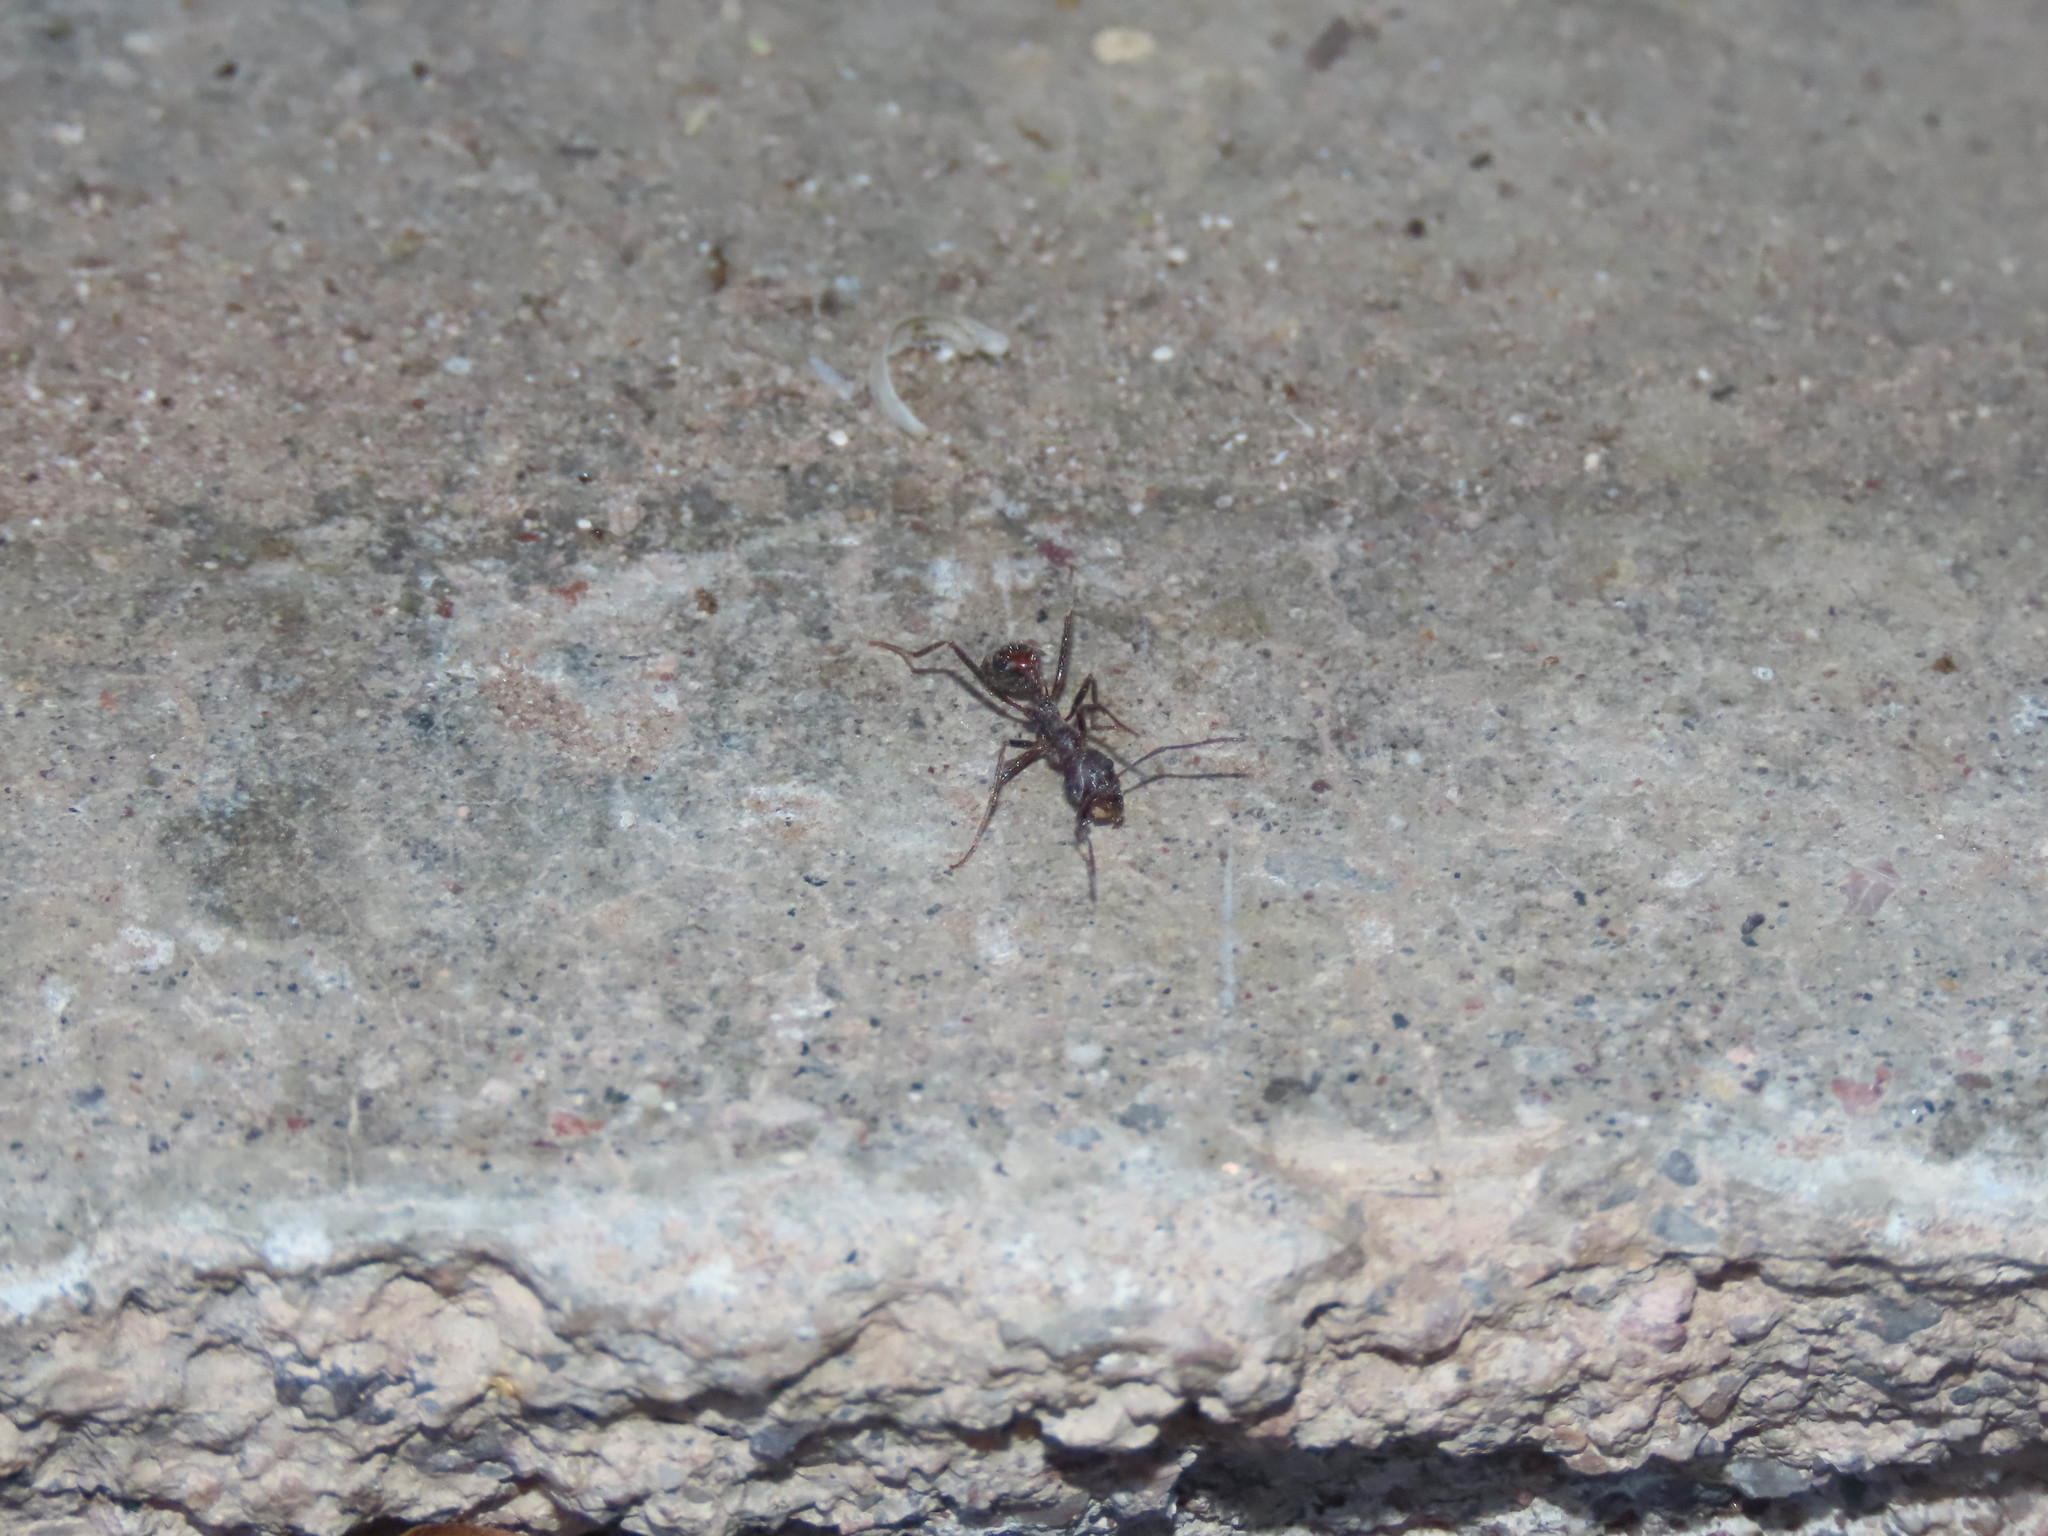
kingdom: Animalia
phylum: Arthropoda
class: Insecta
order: Hymenoptera
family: Formicidae
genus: Novomessor
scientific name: Novomessor albisetosa
